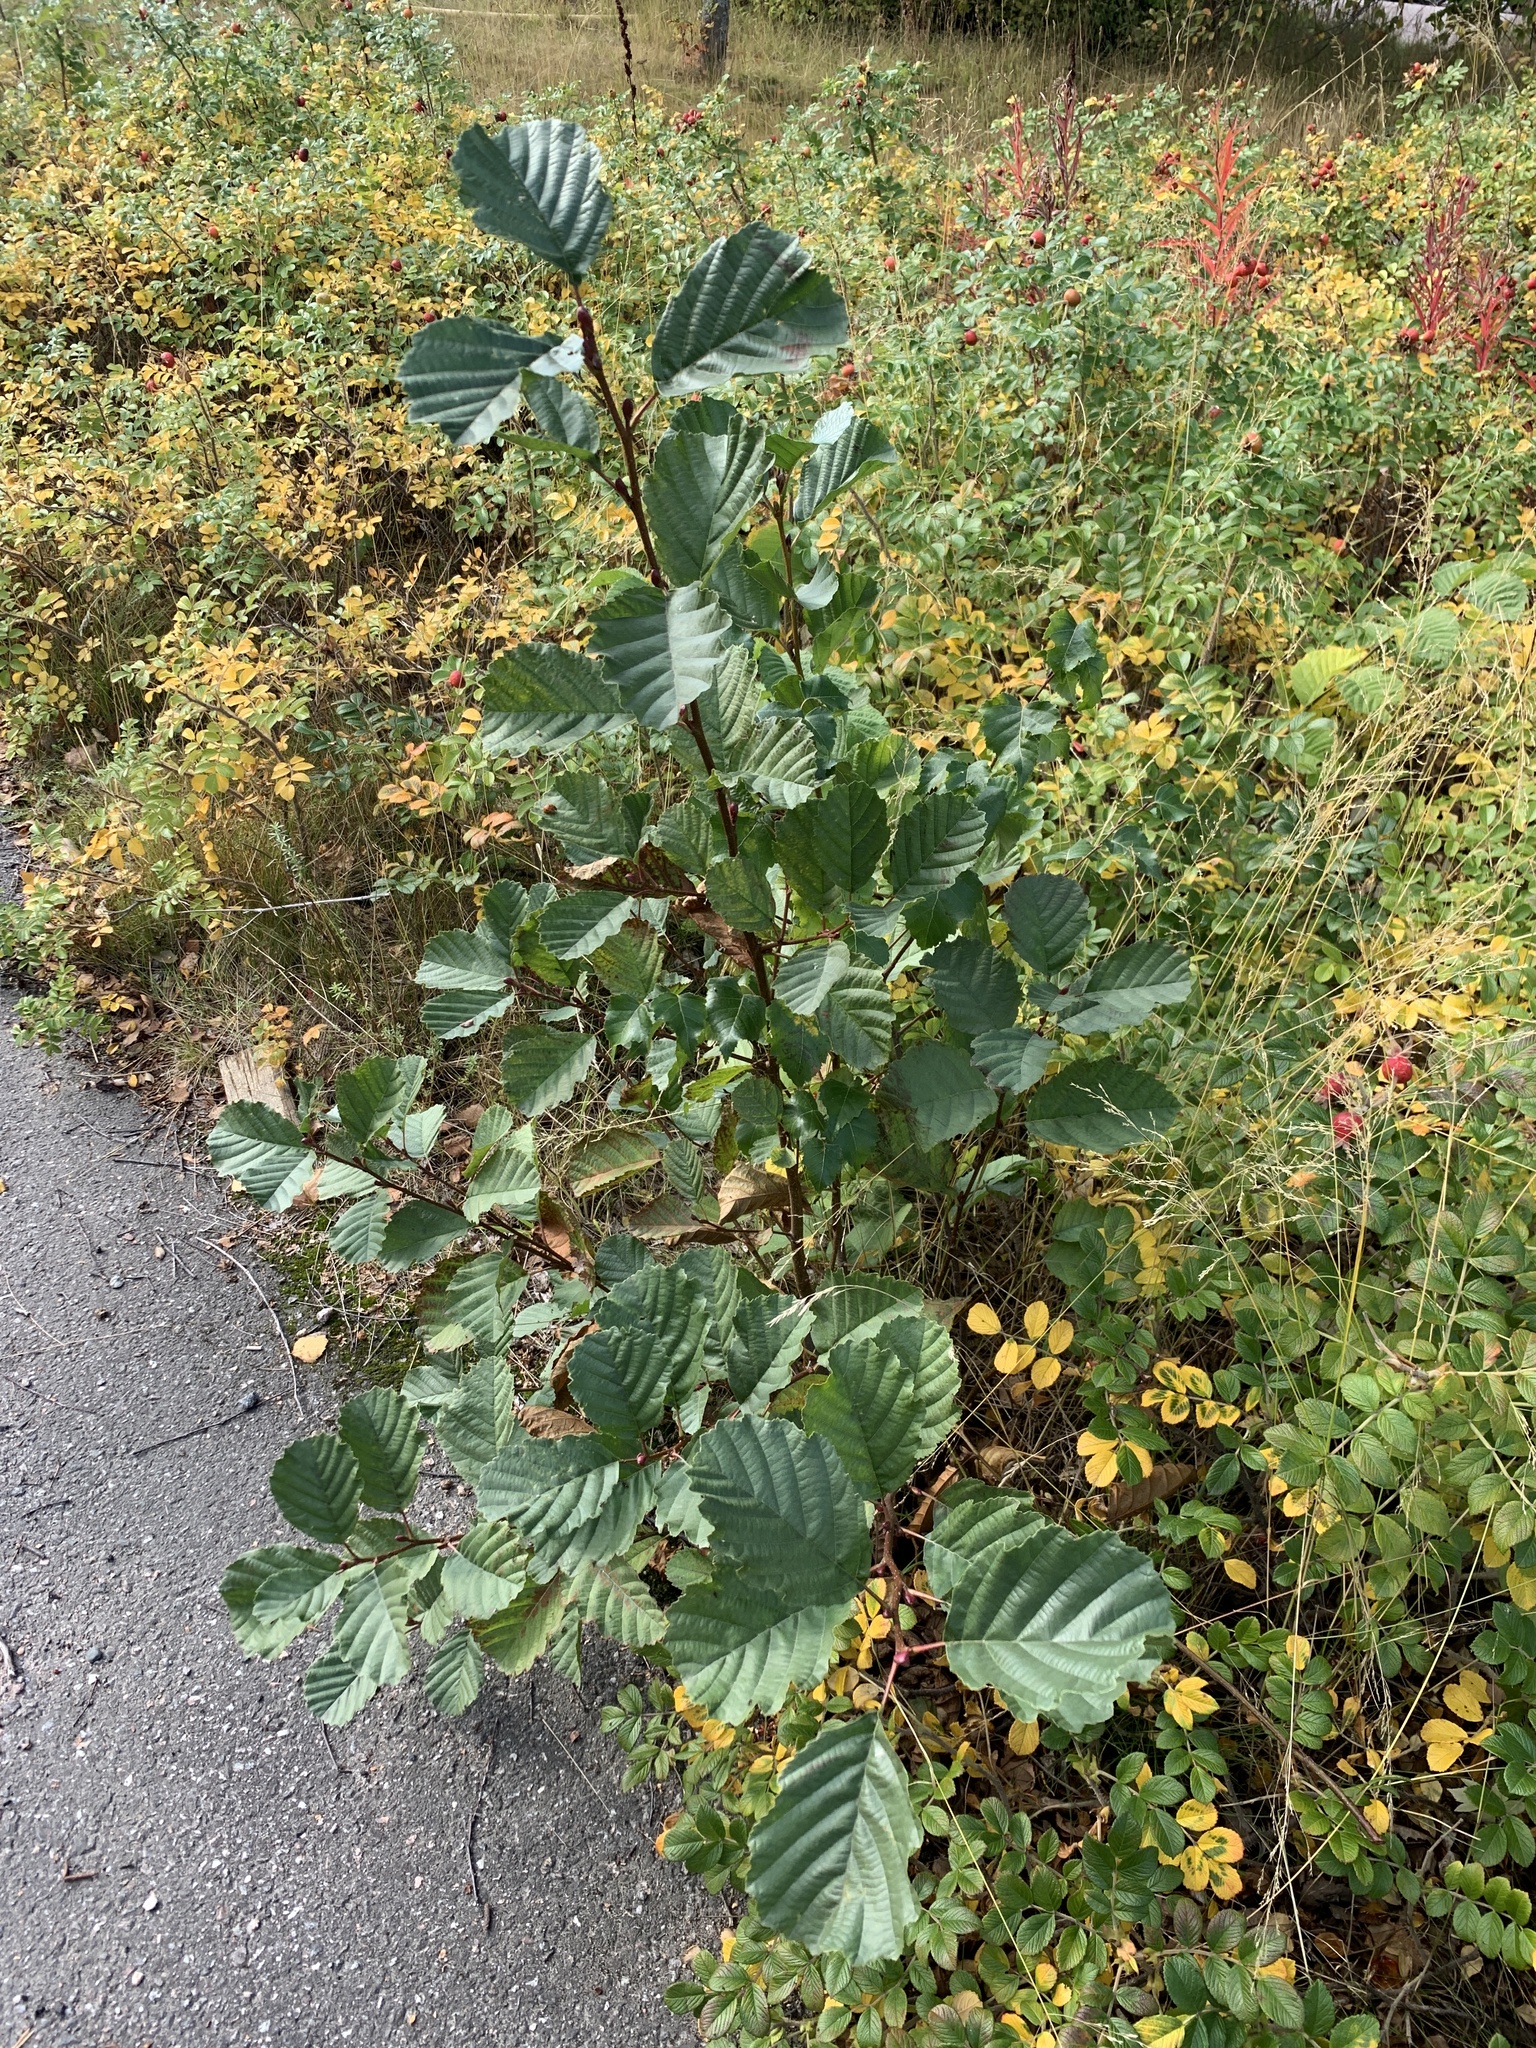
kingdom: Plantae
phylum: Tracheophyta
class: Magnoliopsida
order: Fagales
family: Betulaceae
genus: Alnus
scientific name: Alnus glutinosa
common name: Black alder
